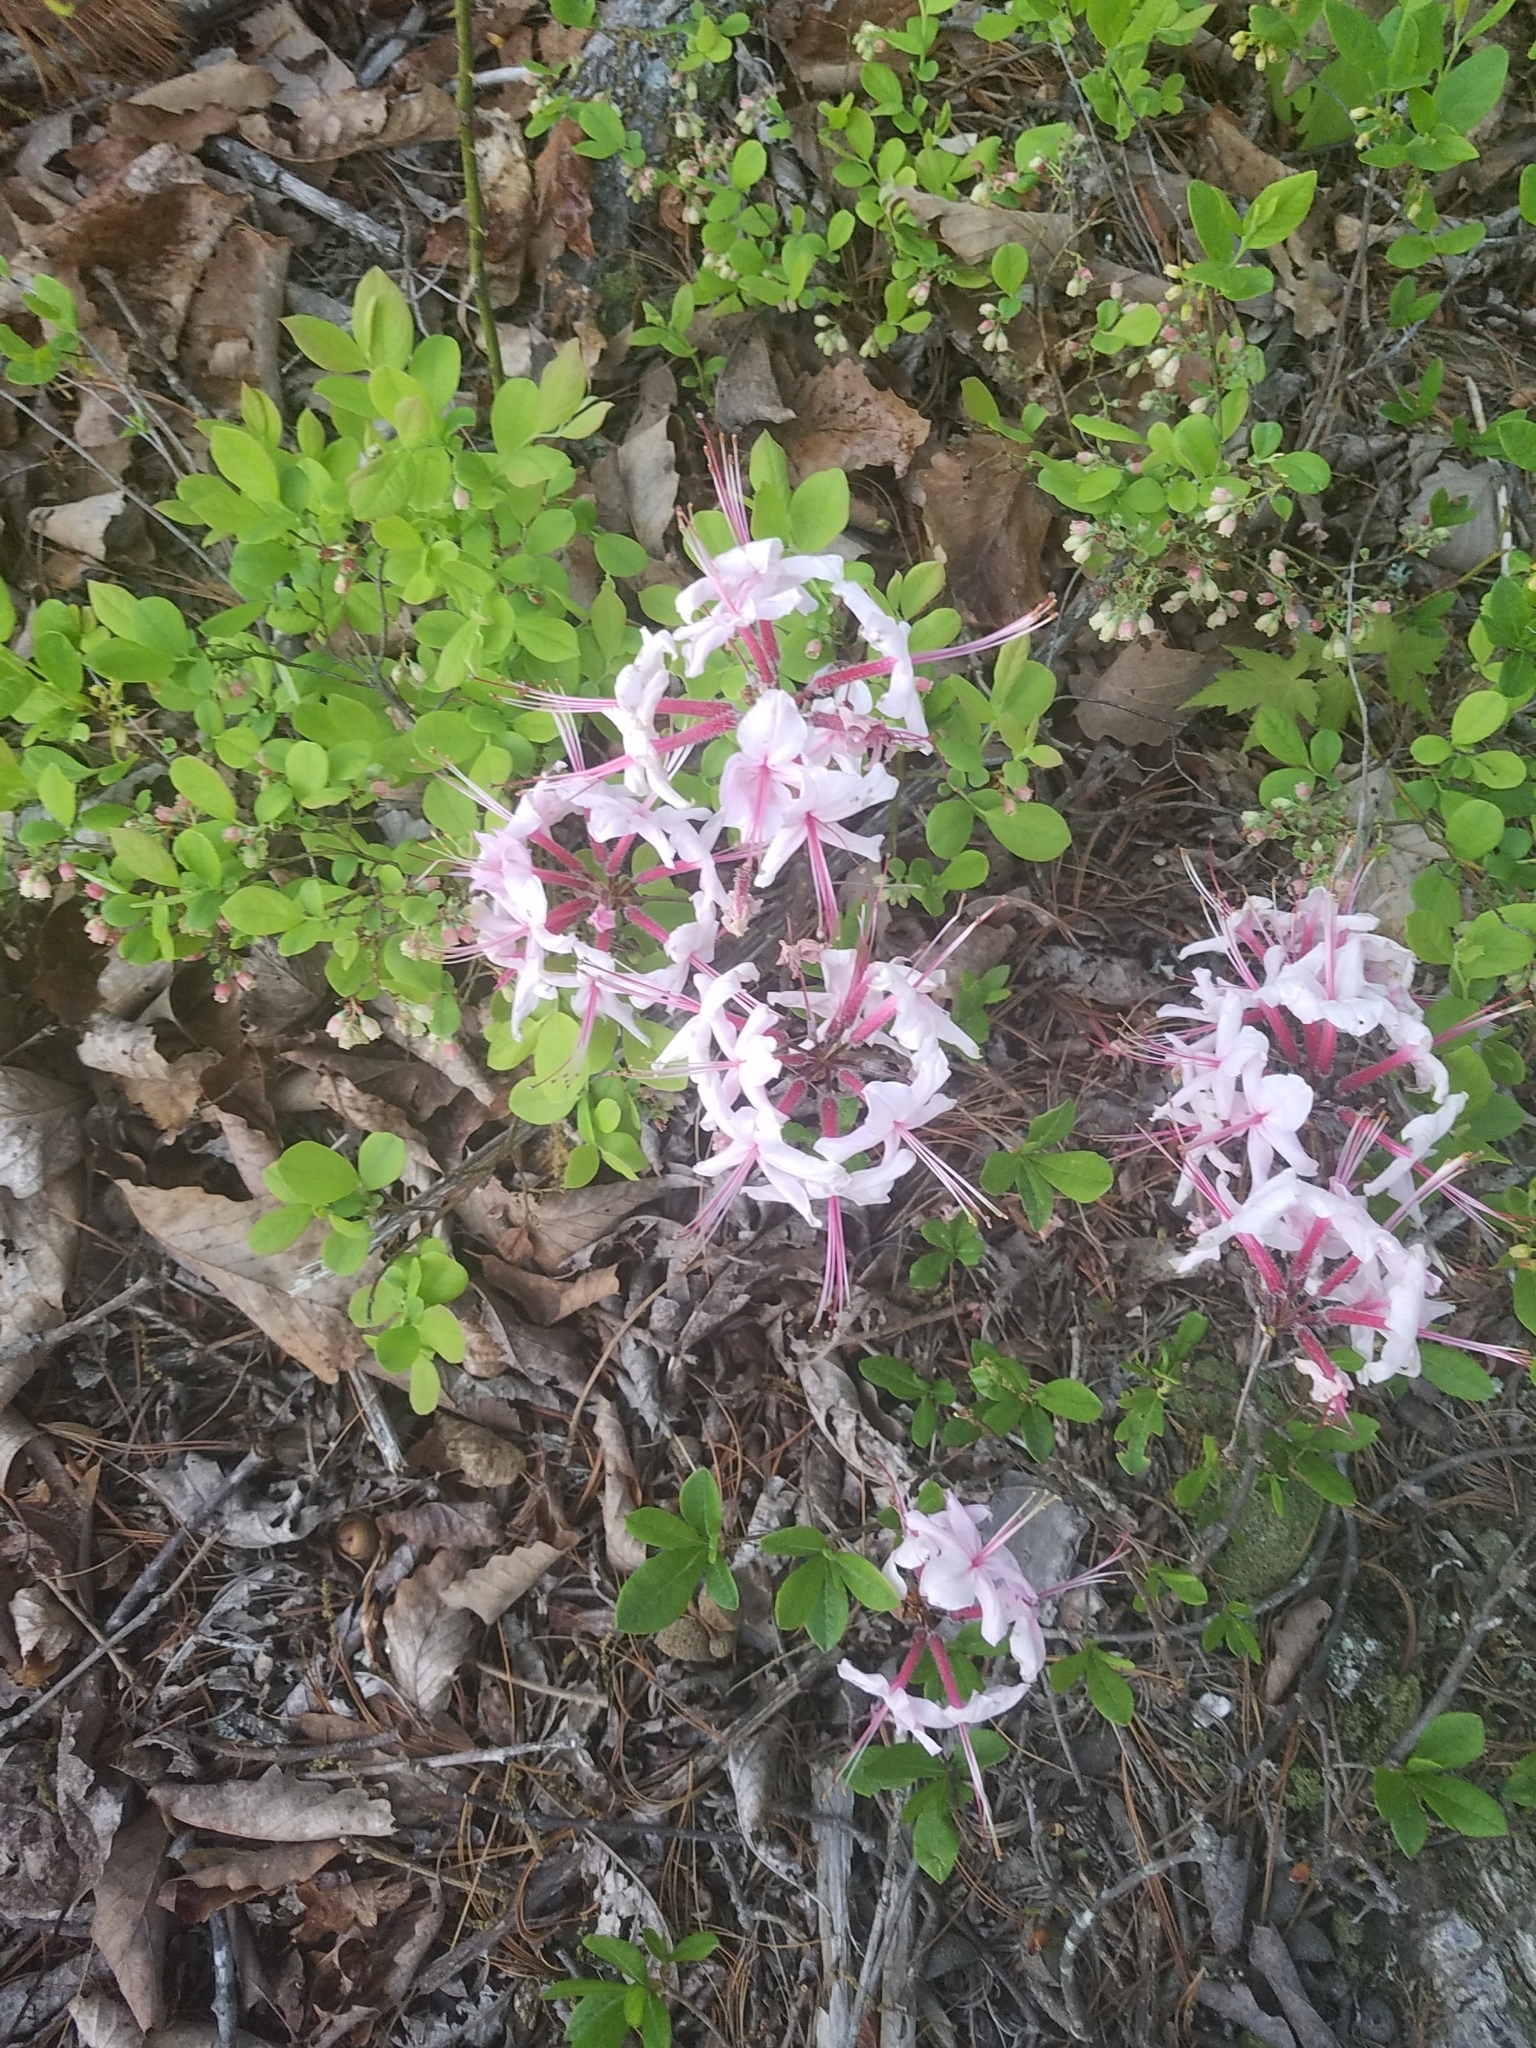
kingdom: Plantae
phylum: Tracheophyta
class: Magnoliopsida
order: Ericales
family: Ericaceae
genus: Rhododendron
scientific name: Rhododendron periclymenoides
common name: Election-pink
